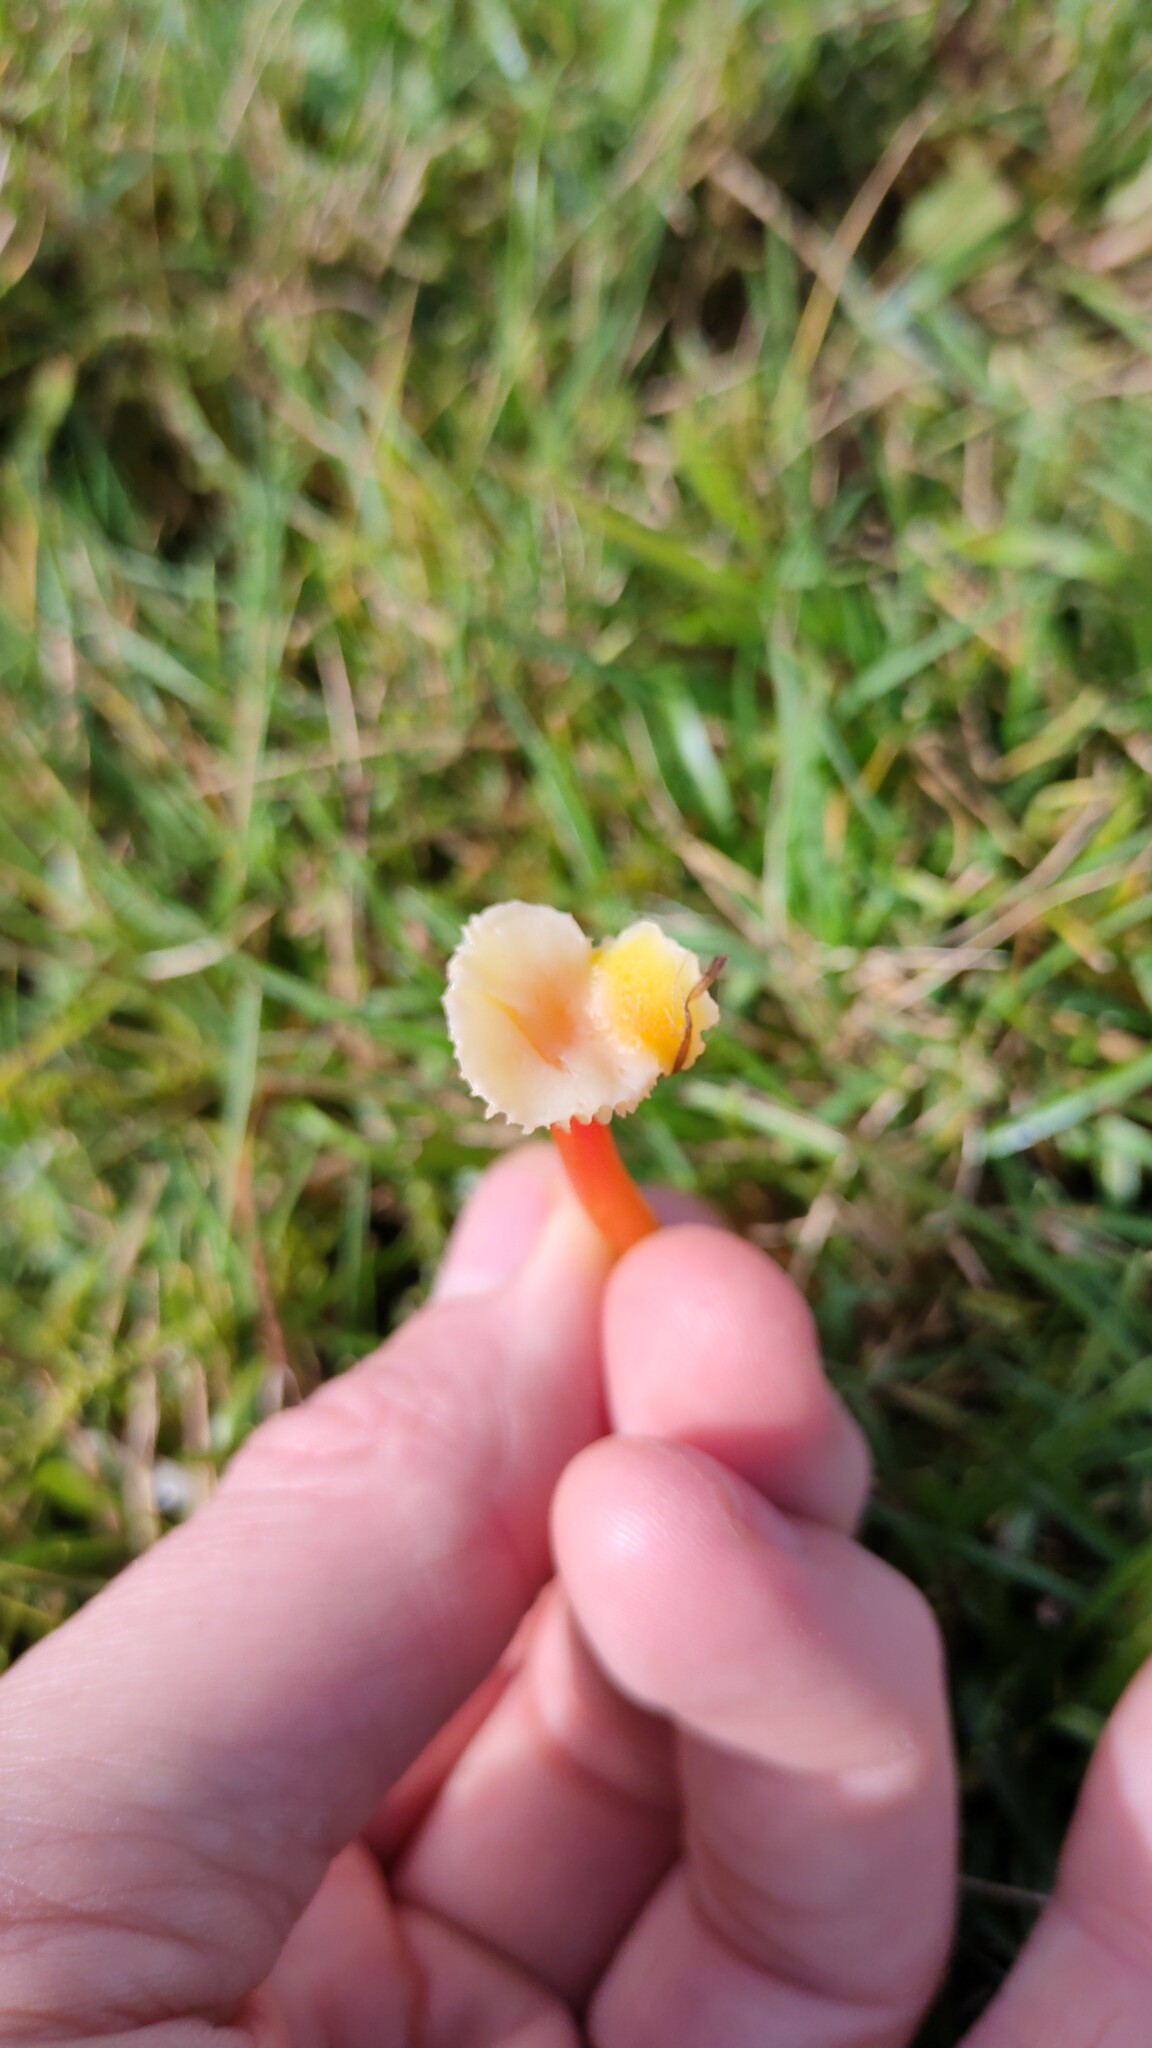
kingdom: Fungi
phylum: Basidiomycota
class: Agaricomycetes
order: Agaricales
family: Hygrophoraceae
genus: Hygrocybe
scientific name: Hygrocybe lepida
